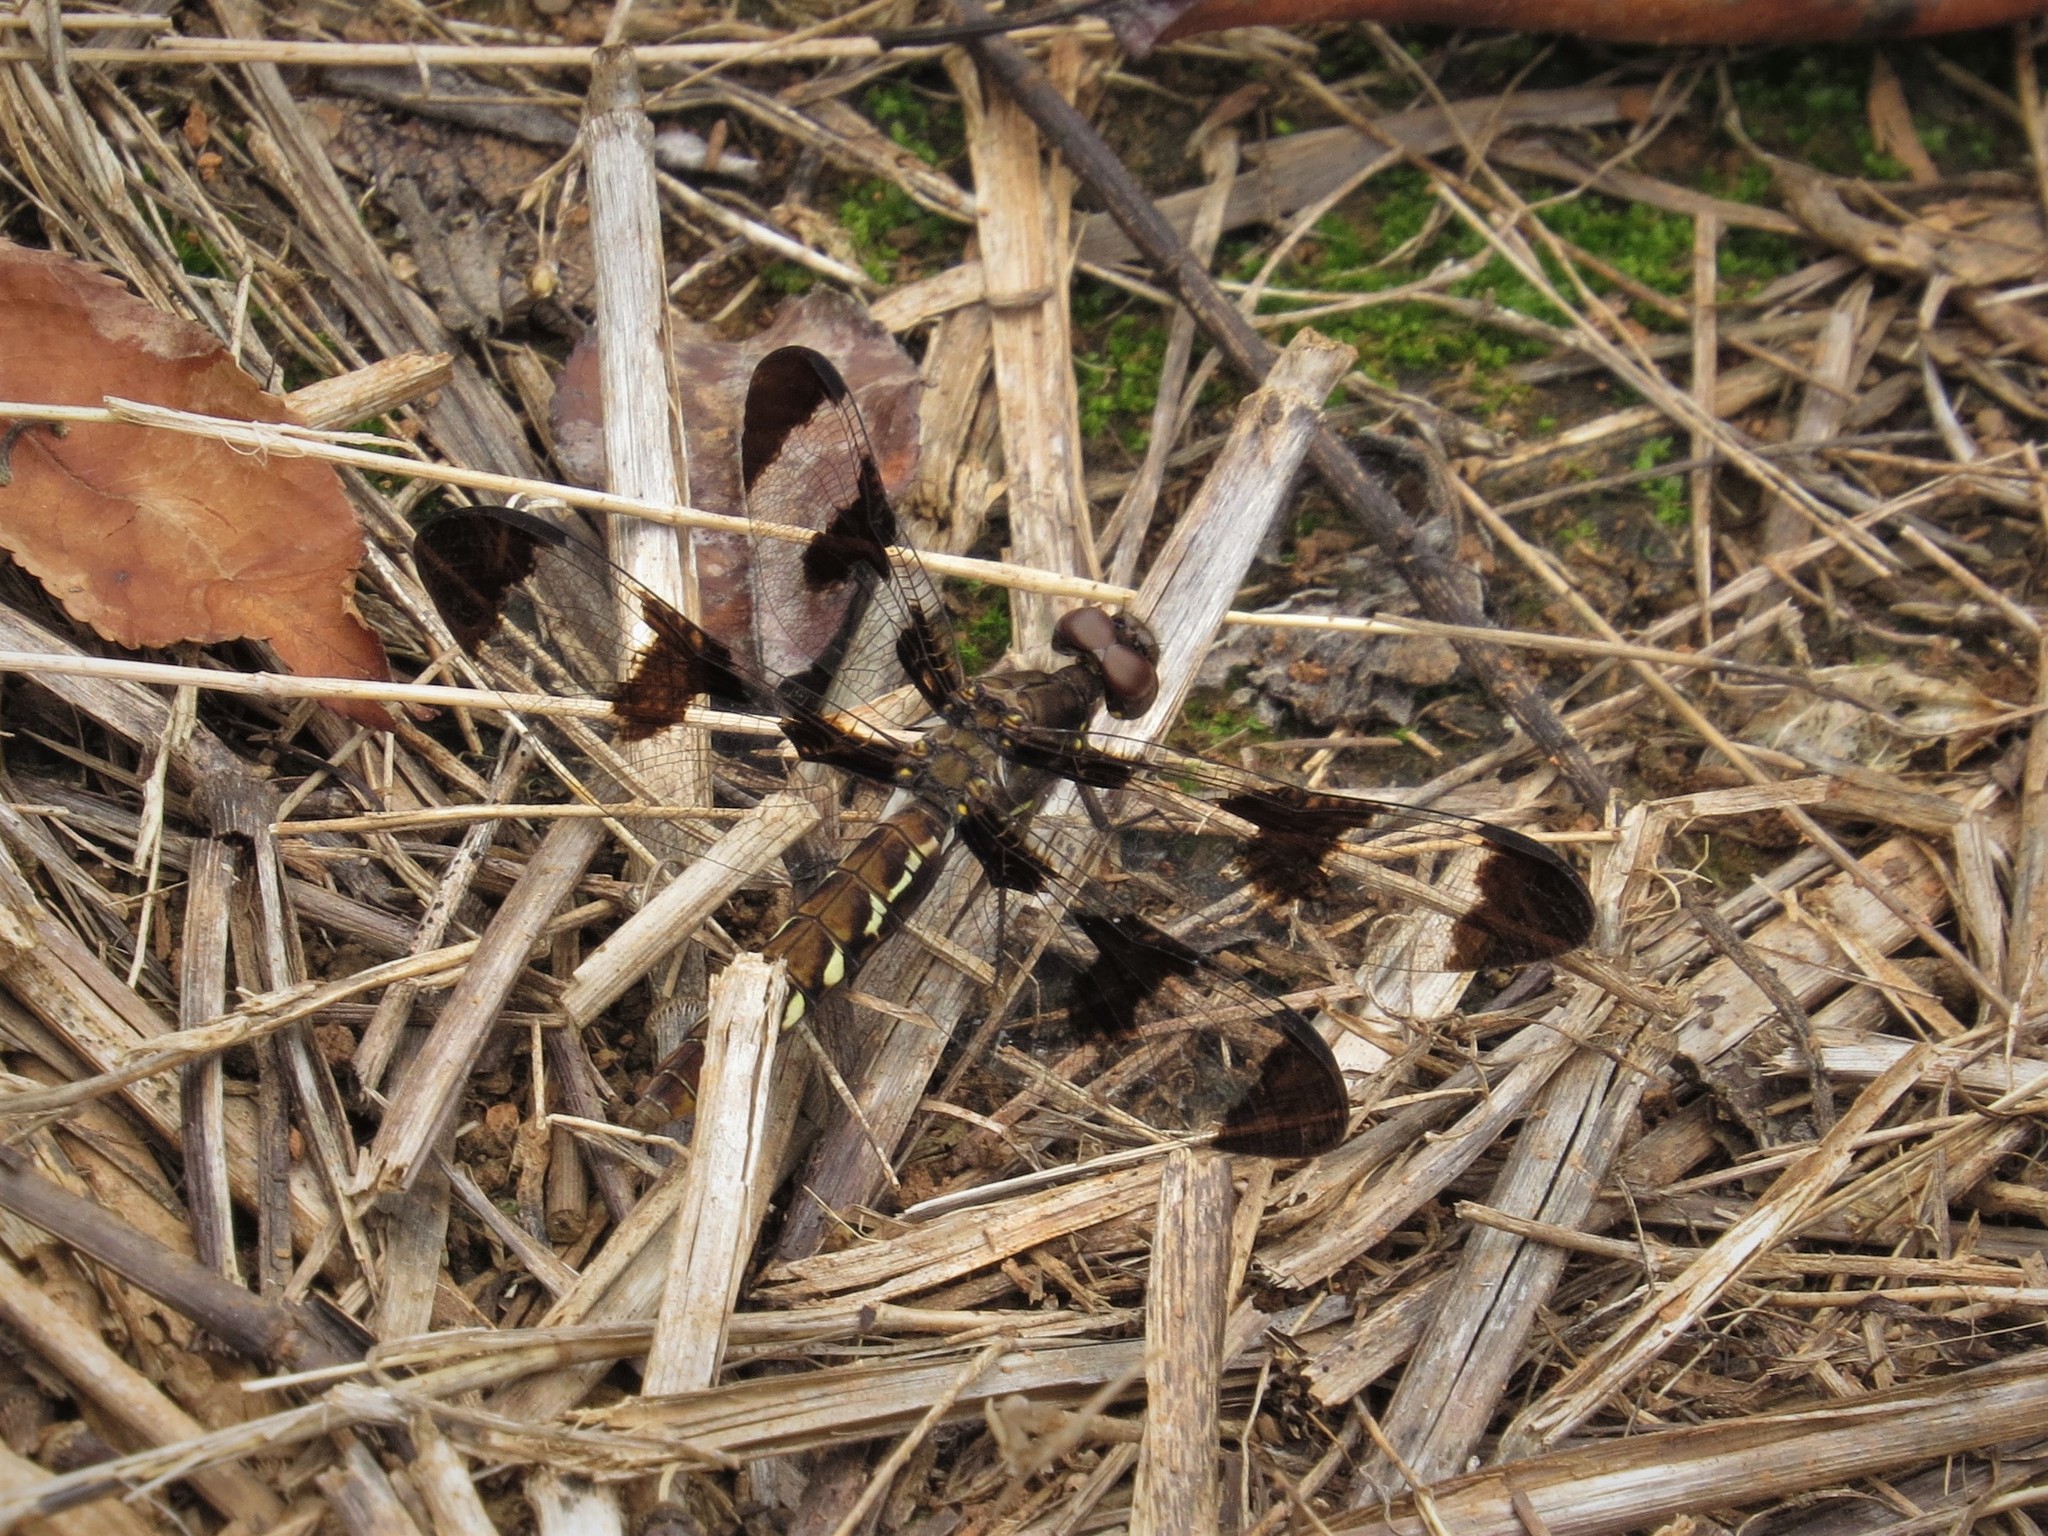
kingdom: Animalia
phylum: Arthropoda
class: Insecta
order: Odonata
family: Libellulidae
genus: Plathemis
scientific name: Plathemis lydia
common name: Common whitetail
